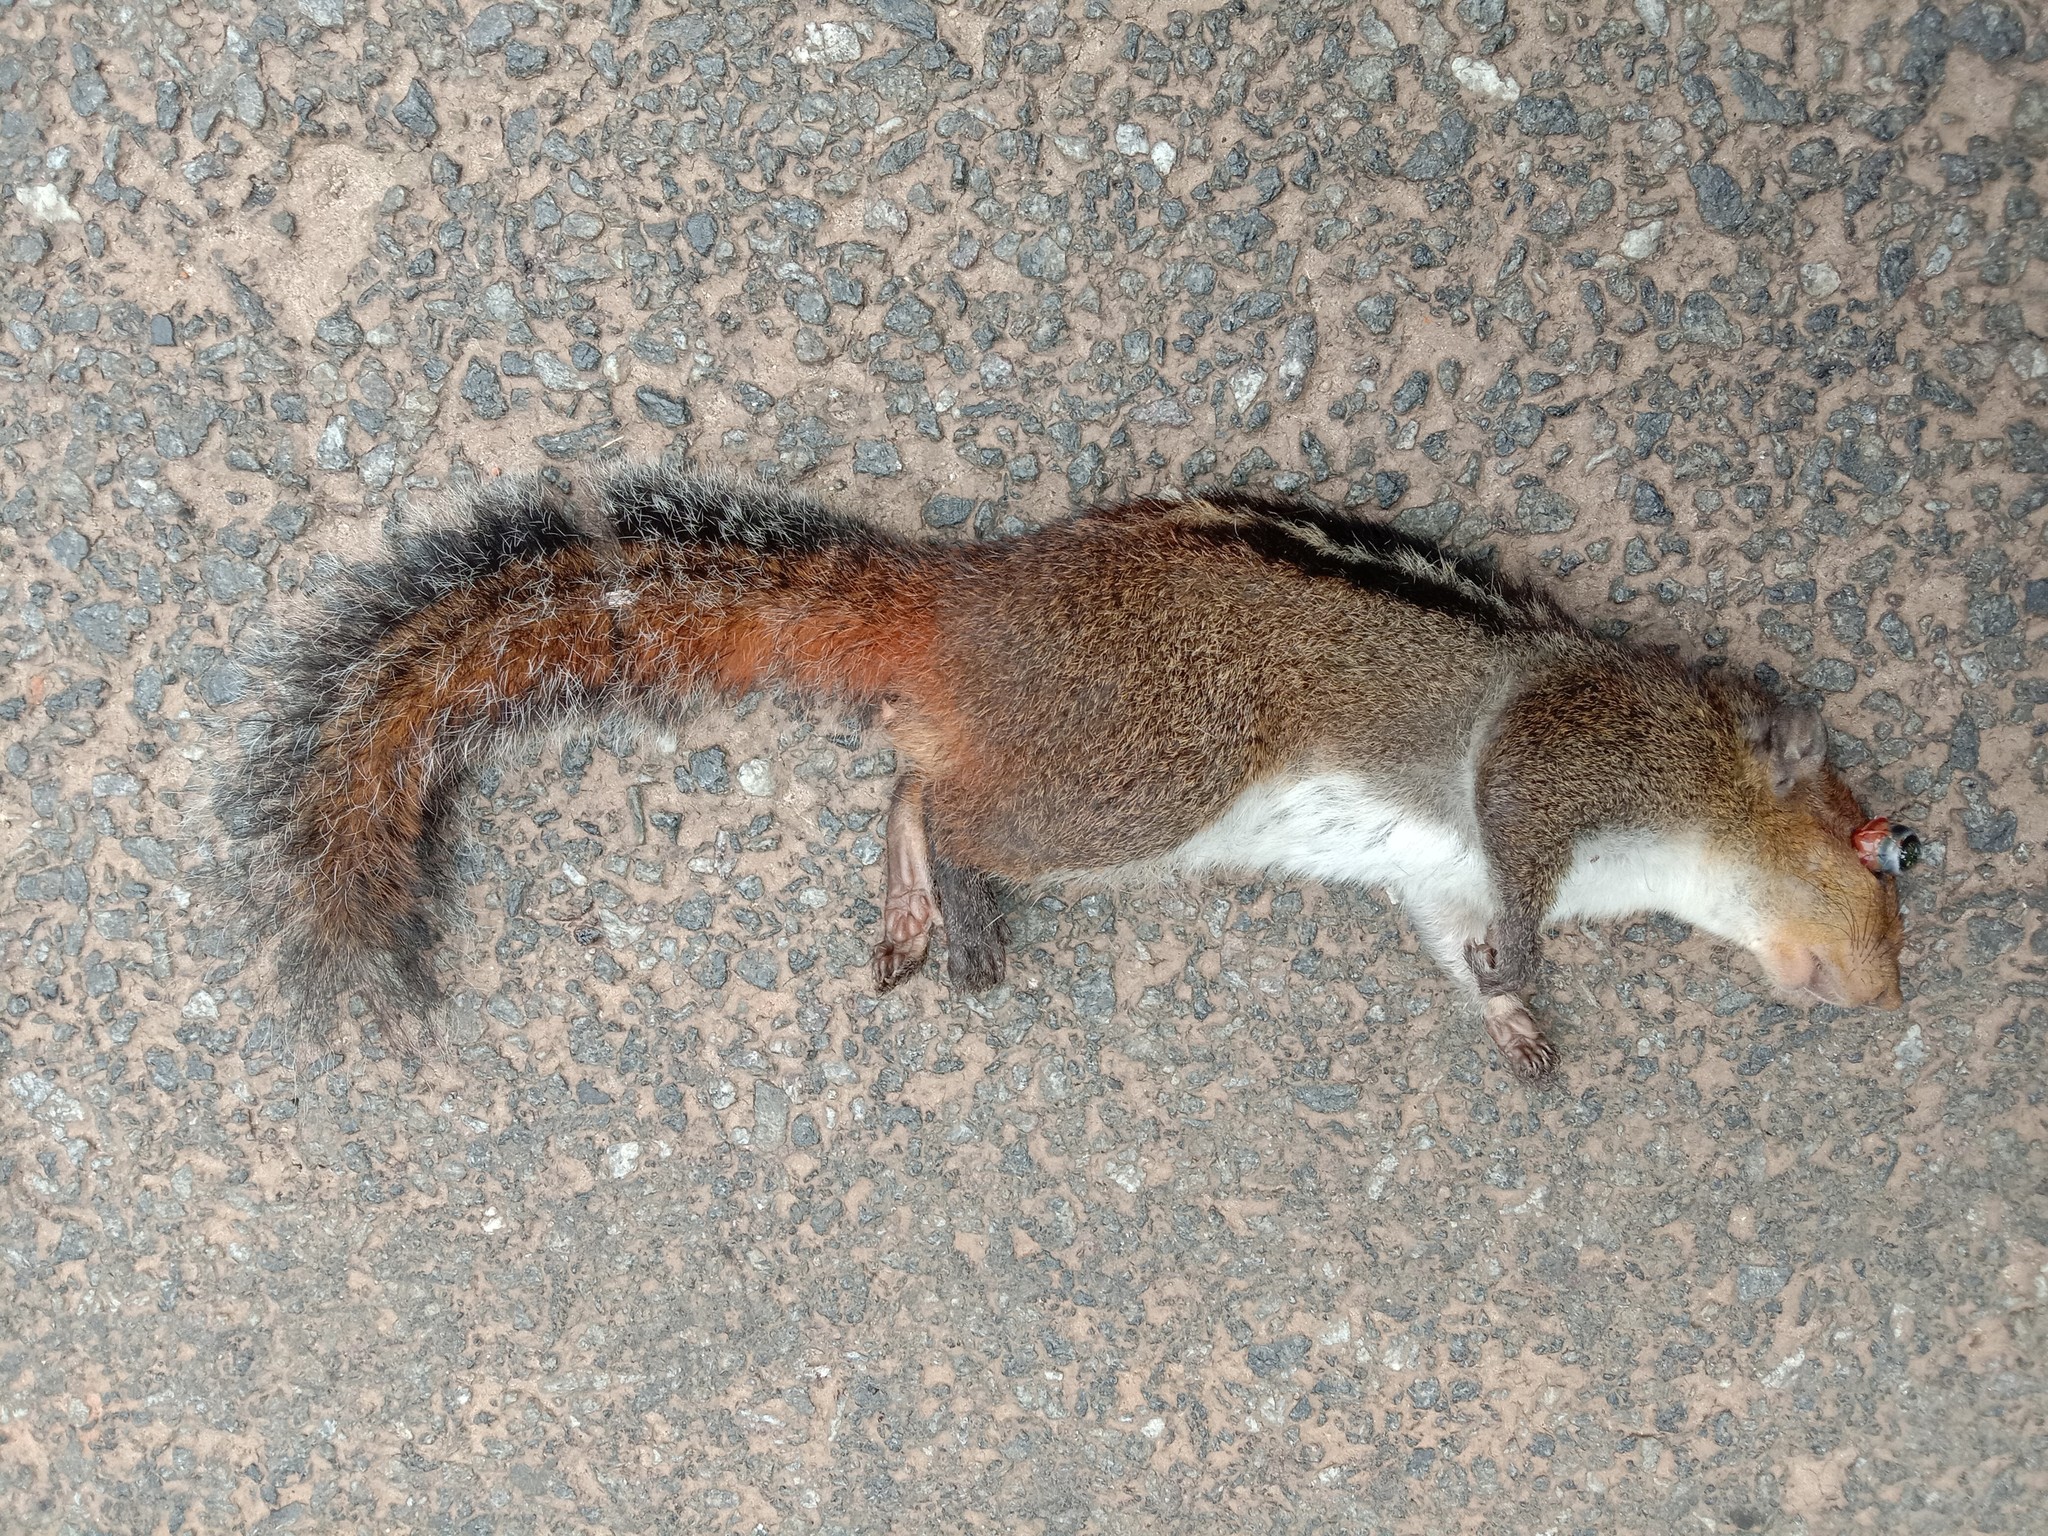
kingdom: Animalia
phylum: Chordata
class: Mammalia
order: Rodentia
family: Sciuridae
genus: Funambulus
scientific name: Funambulus tristriatus
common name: Jungle palm squirrel
